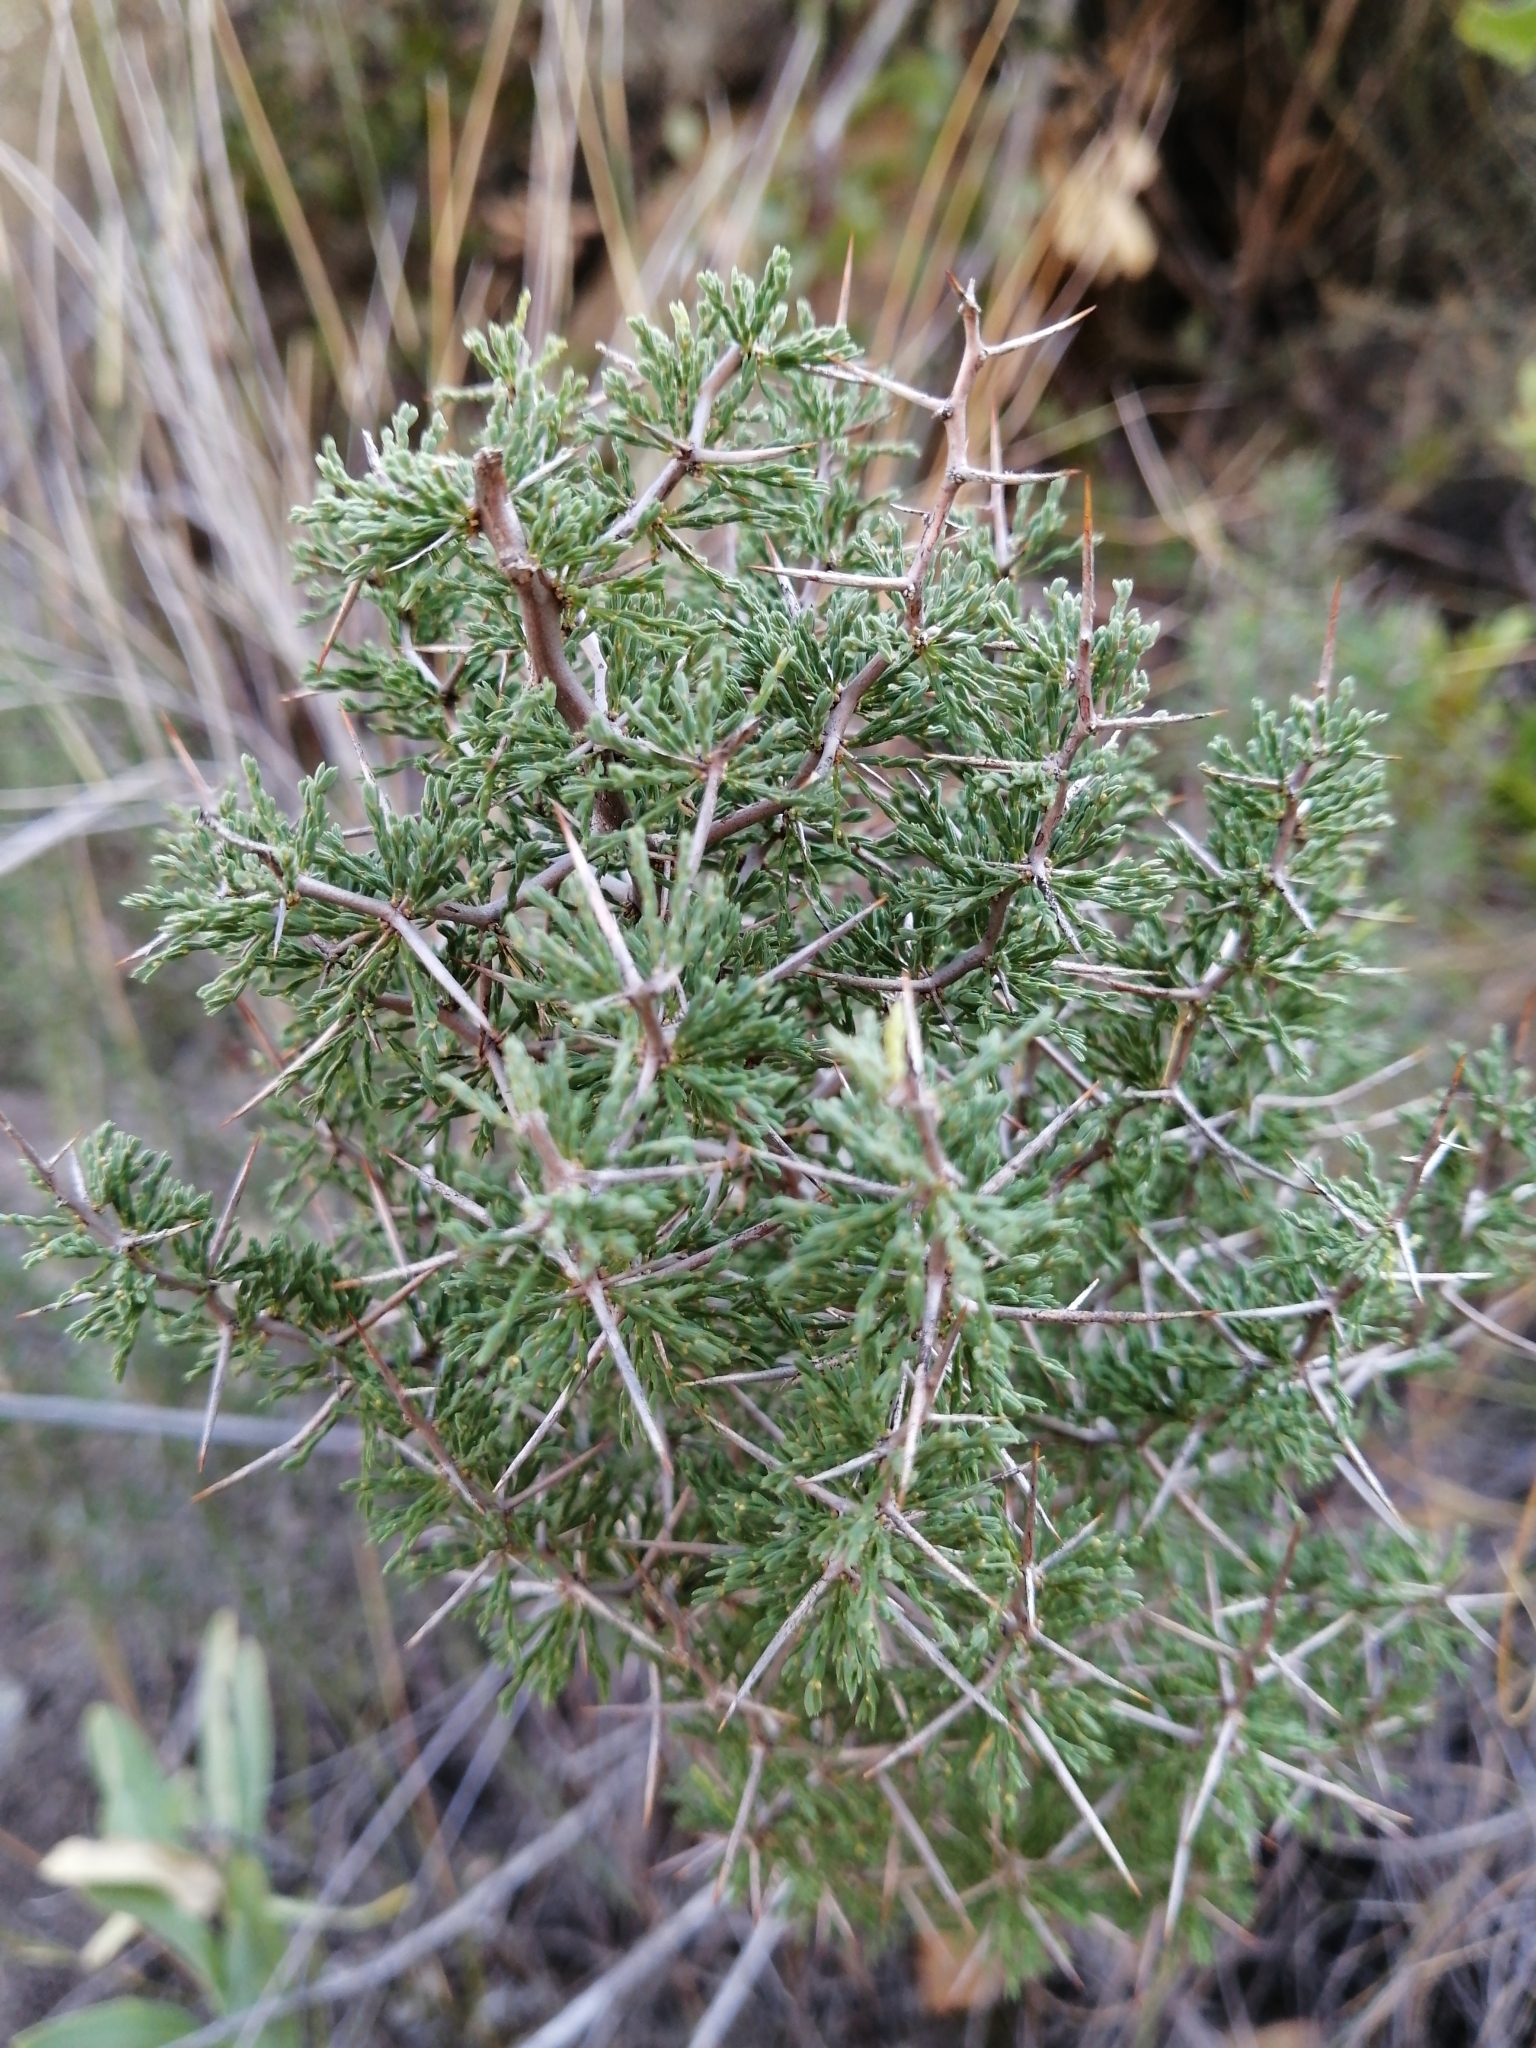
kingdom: Plantae
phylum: Tracheophyta
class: Liliopsida
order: Asparagales
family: Asparagaceae
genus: Asparagus
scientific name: Asparagus capensis
